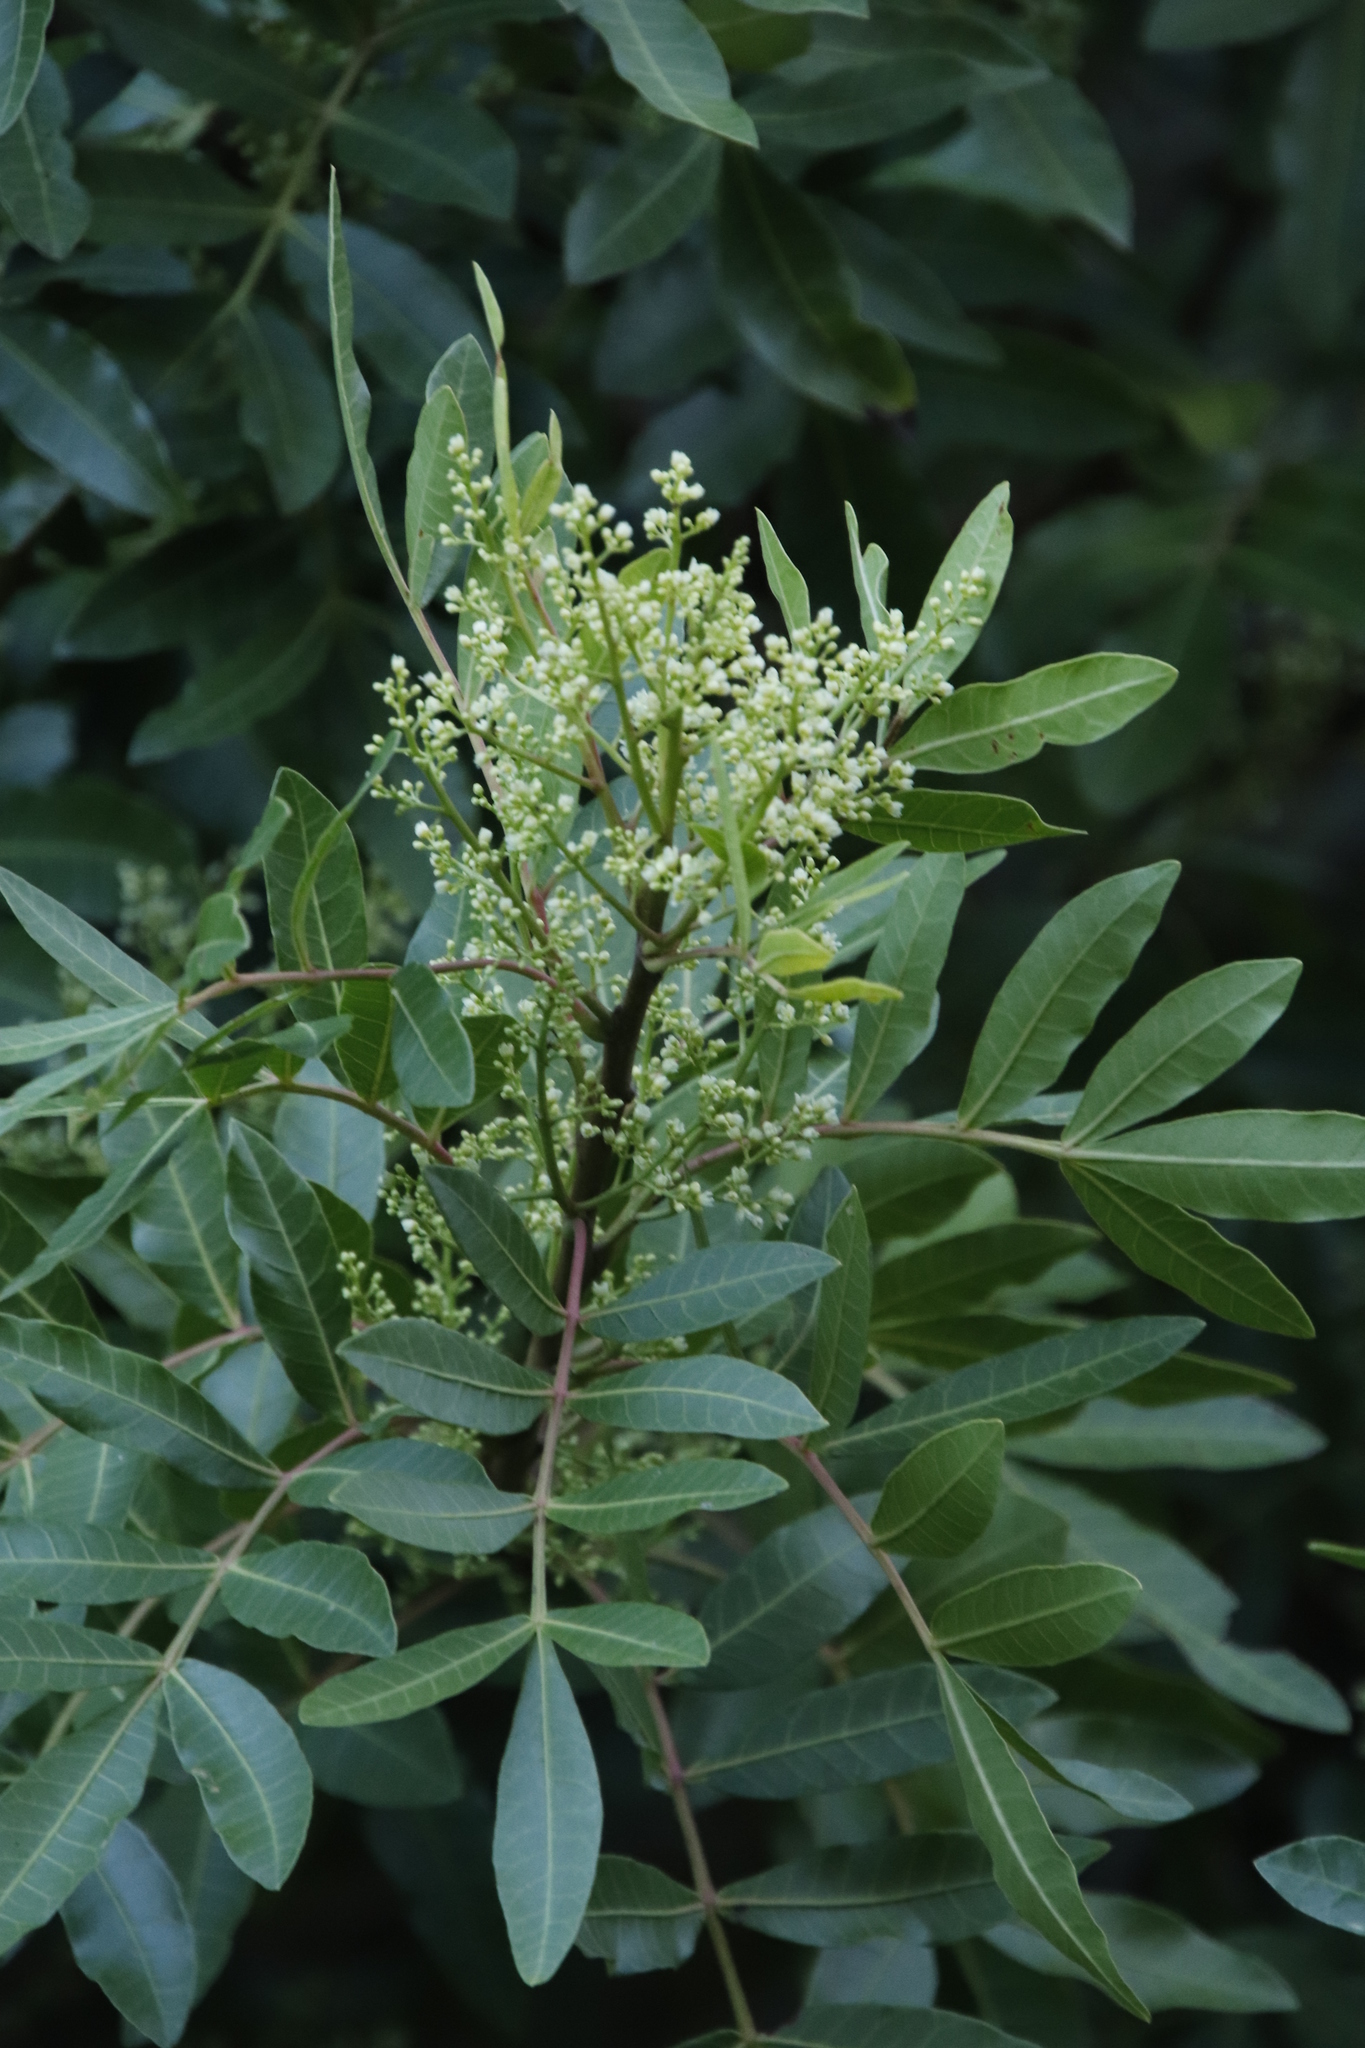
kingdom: Plantae
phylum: Tracheophyta
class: Magnoliopsida
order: Sapindales
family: Anacardiaceae
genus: Schinus
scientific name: Schinus terebinthifolia
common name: Brazilian peppertree
